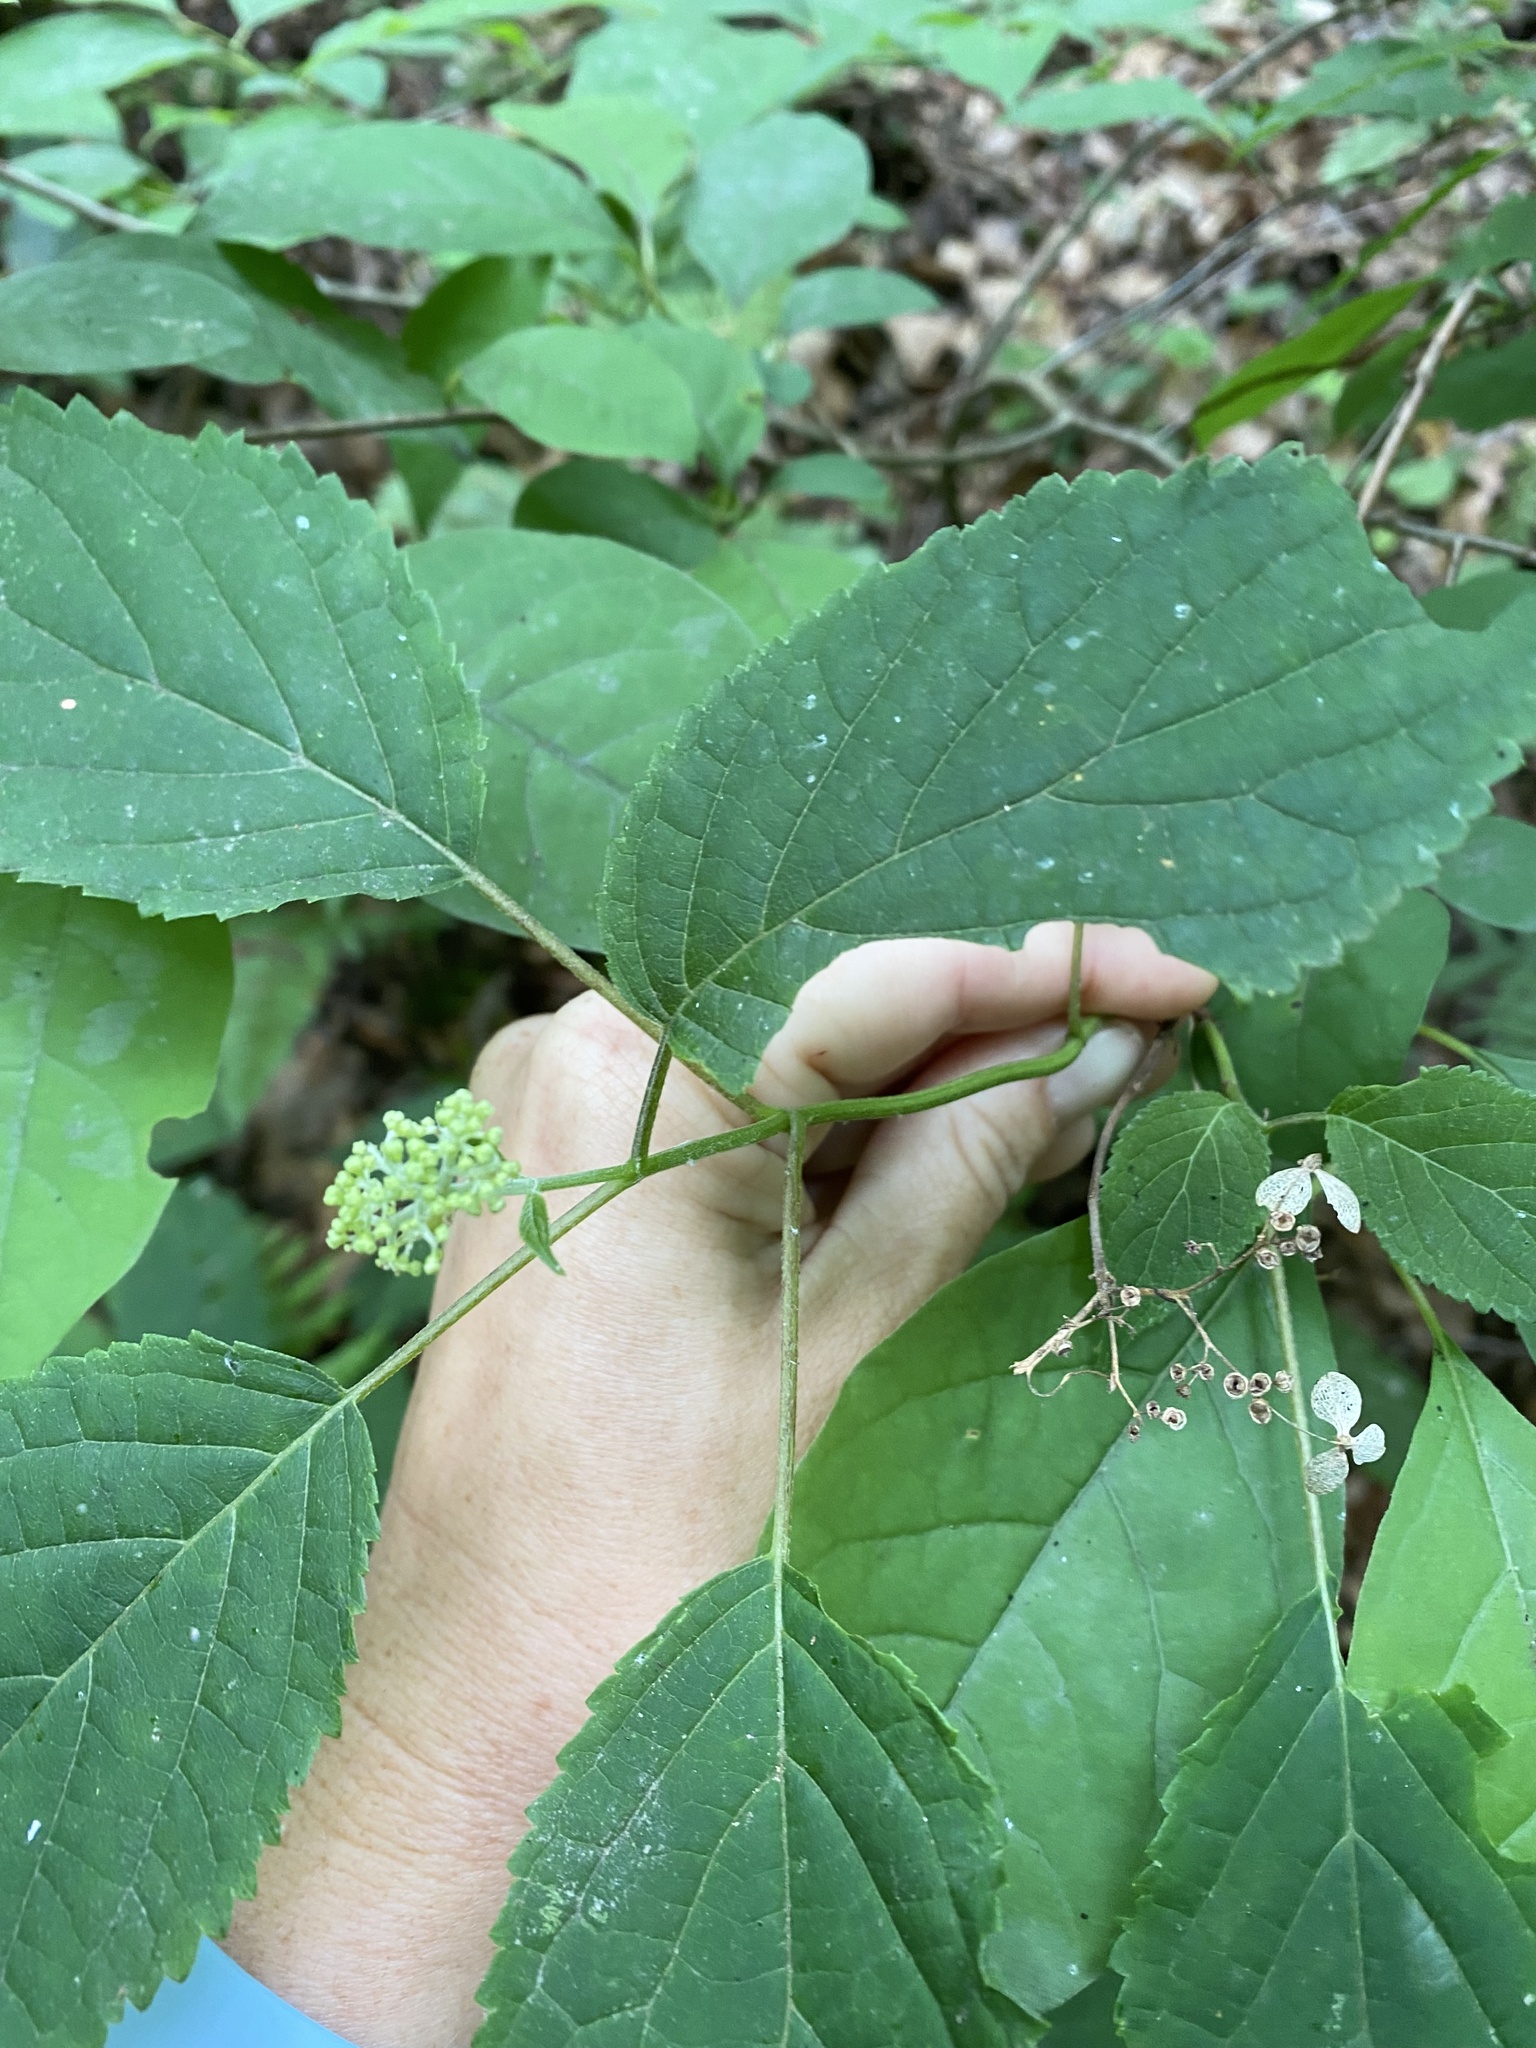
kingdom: Plantae
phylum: Tracheophyta
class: Magnoliopsida
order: Cornales
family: Hydrangeaceae
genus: Hydrangea
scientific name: Hydrangea arborescens
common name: Sevenbark
